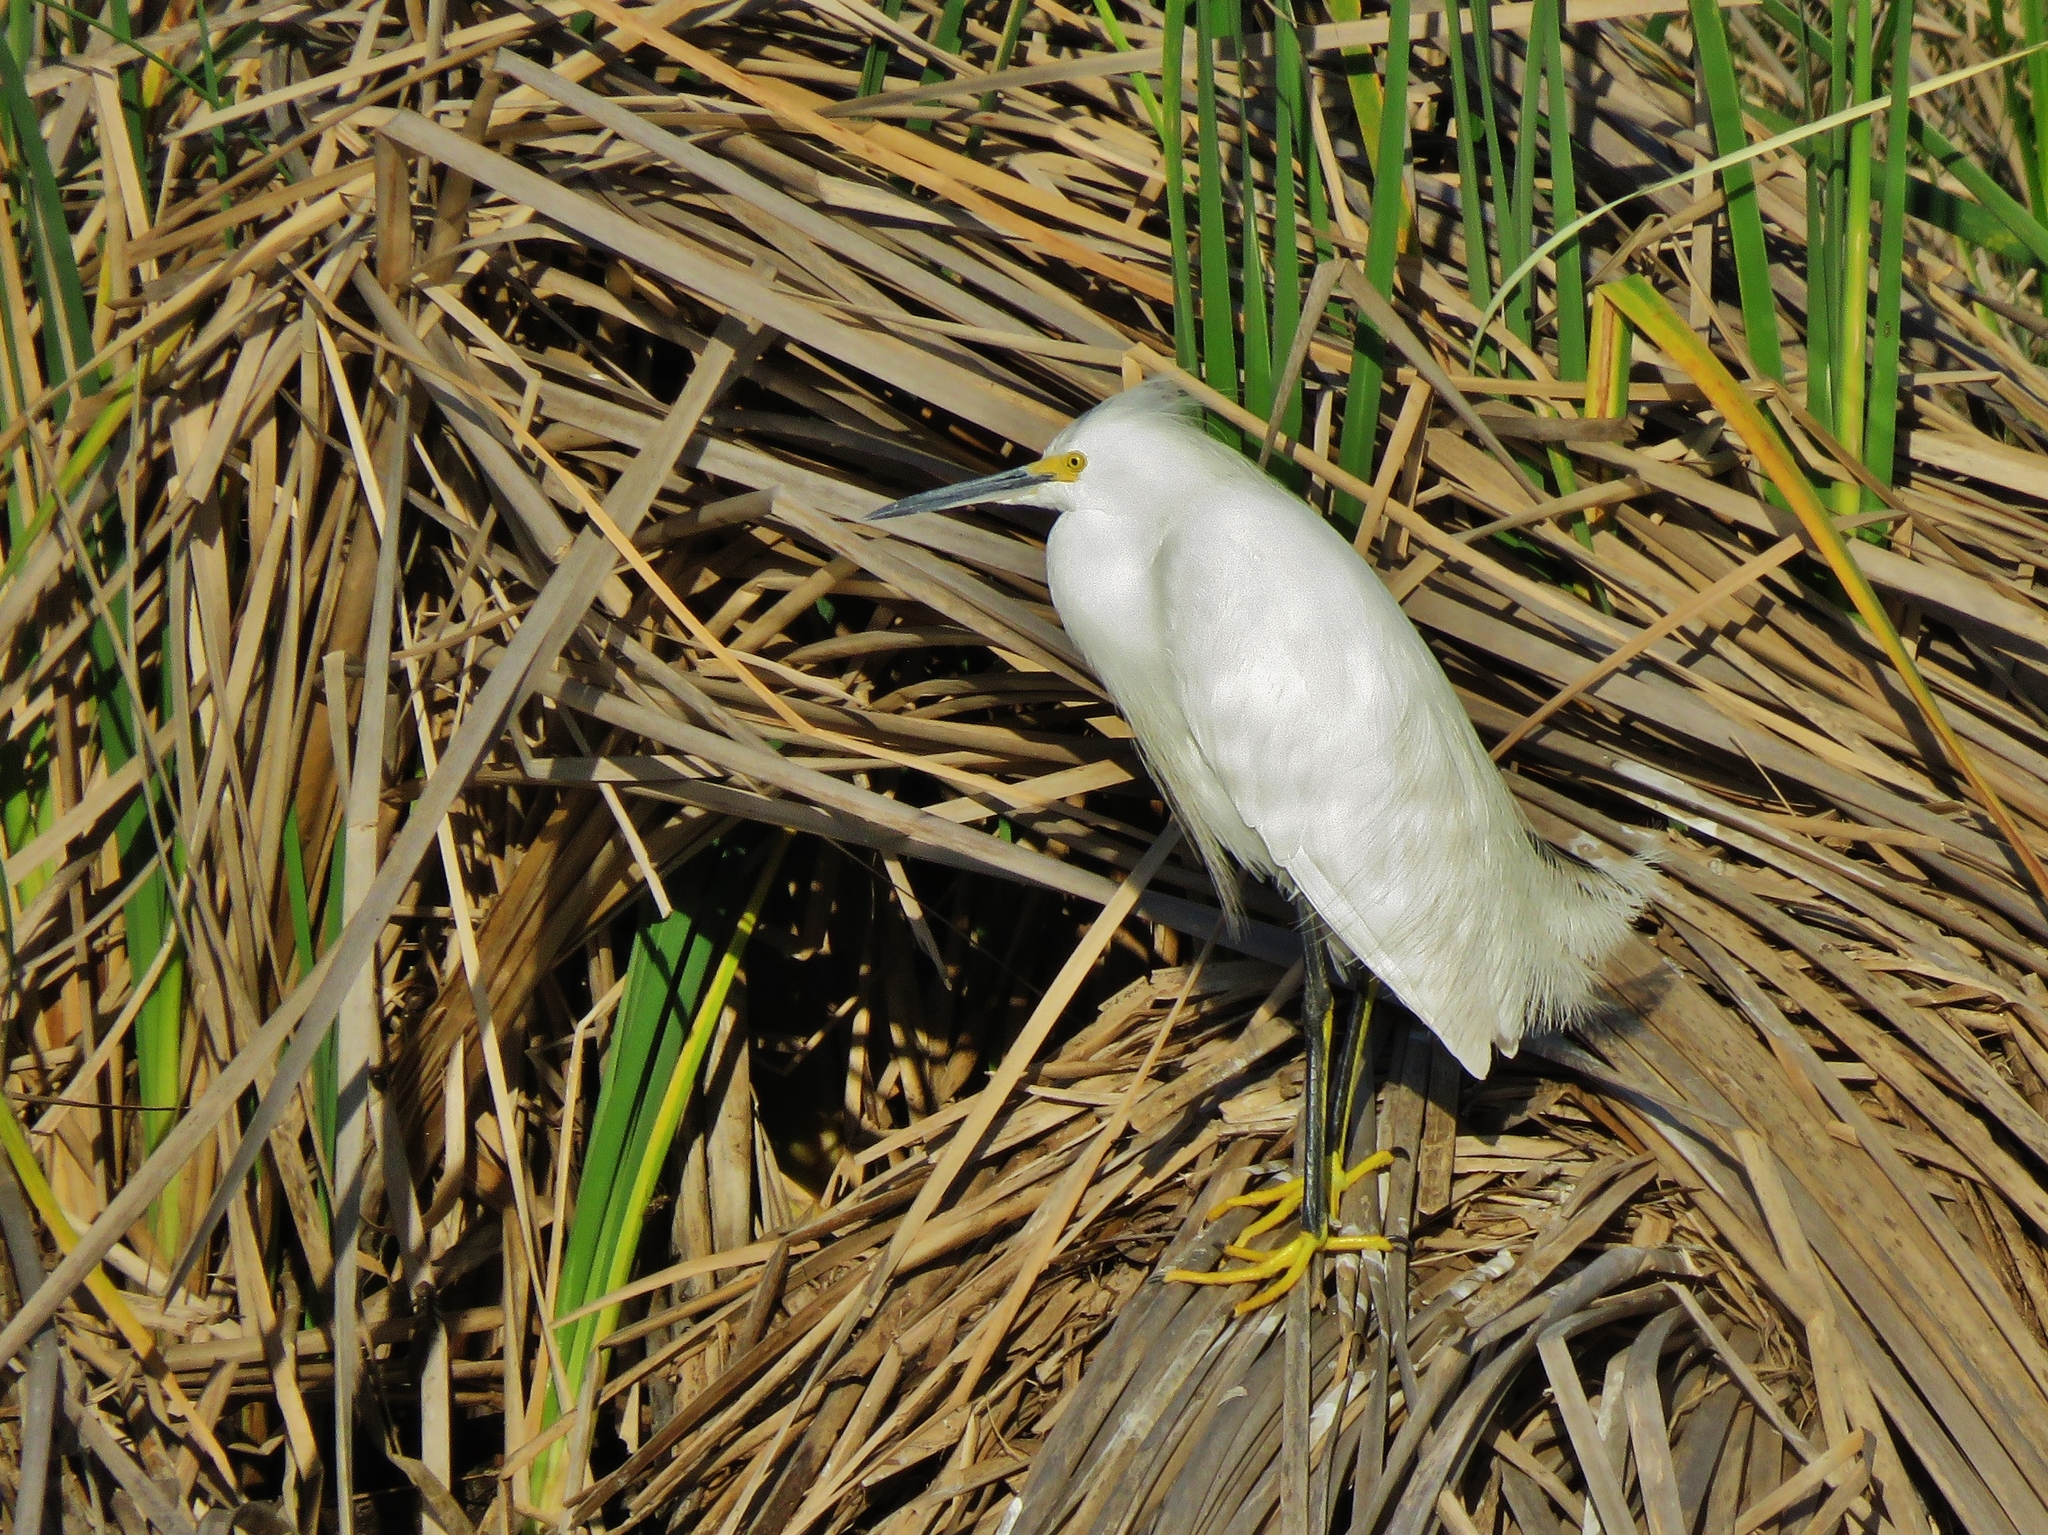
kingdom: Animalia
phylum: Chordata
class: Aves
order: Pelecaniformes
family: Ardeidae
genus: Egretta
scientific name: Egretta thula
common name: Snowy egret
